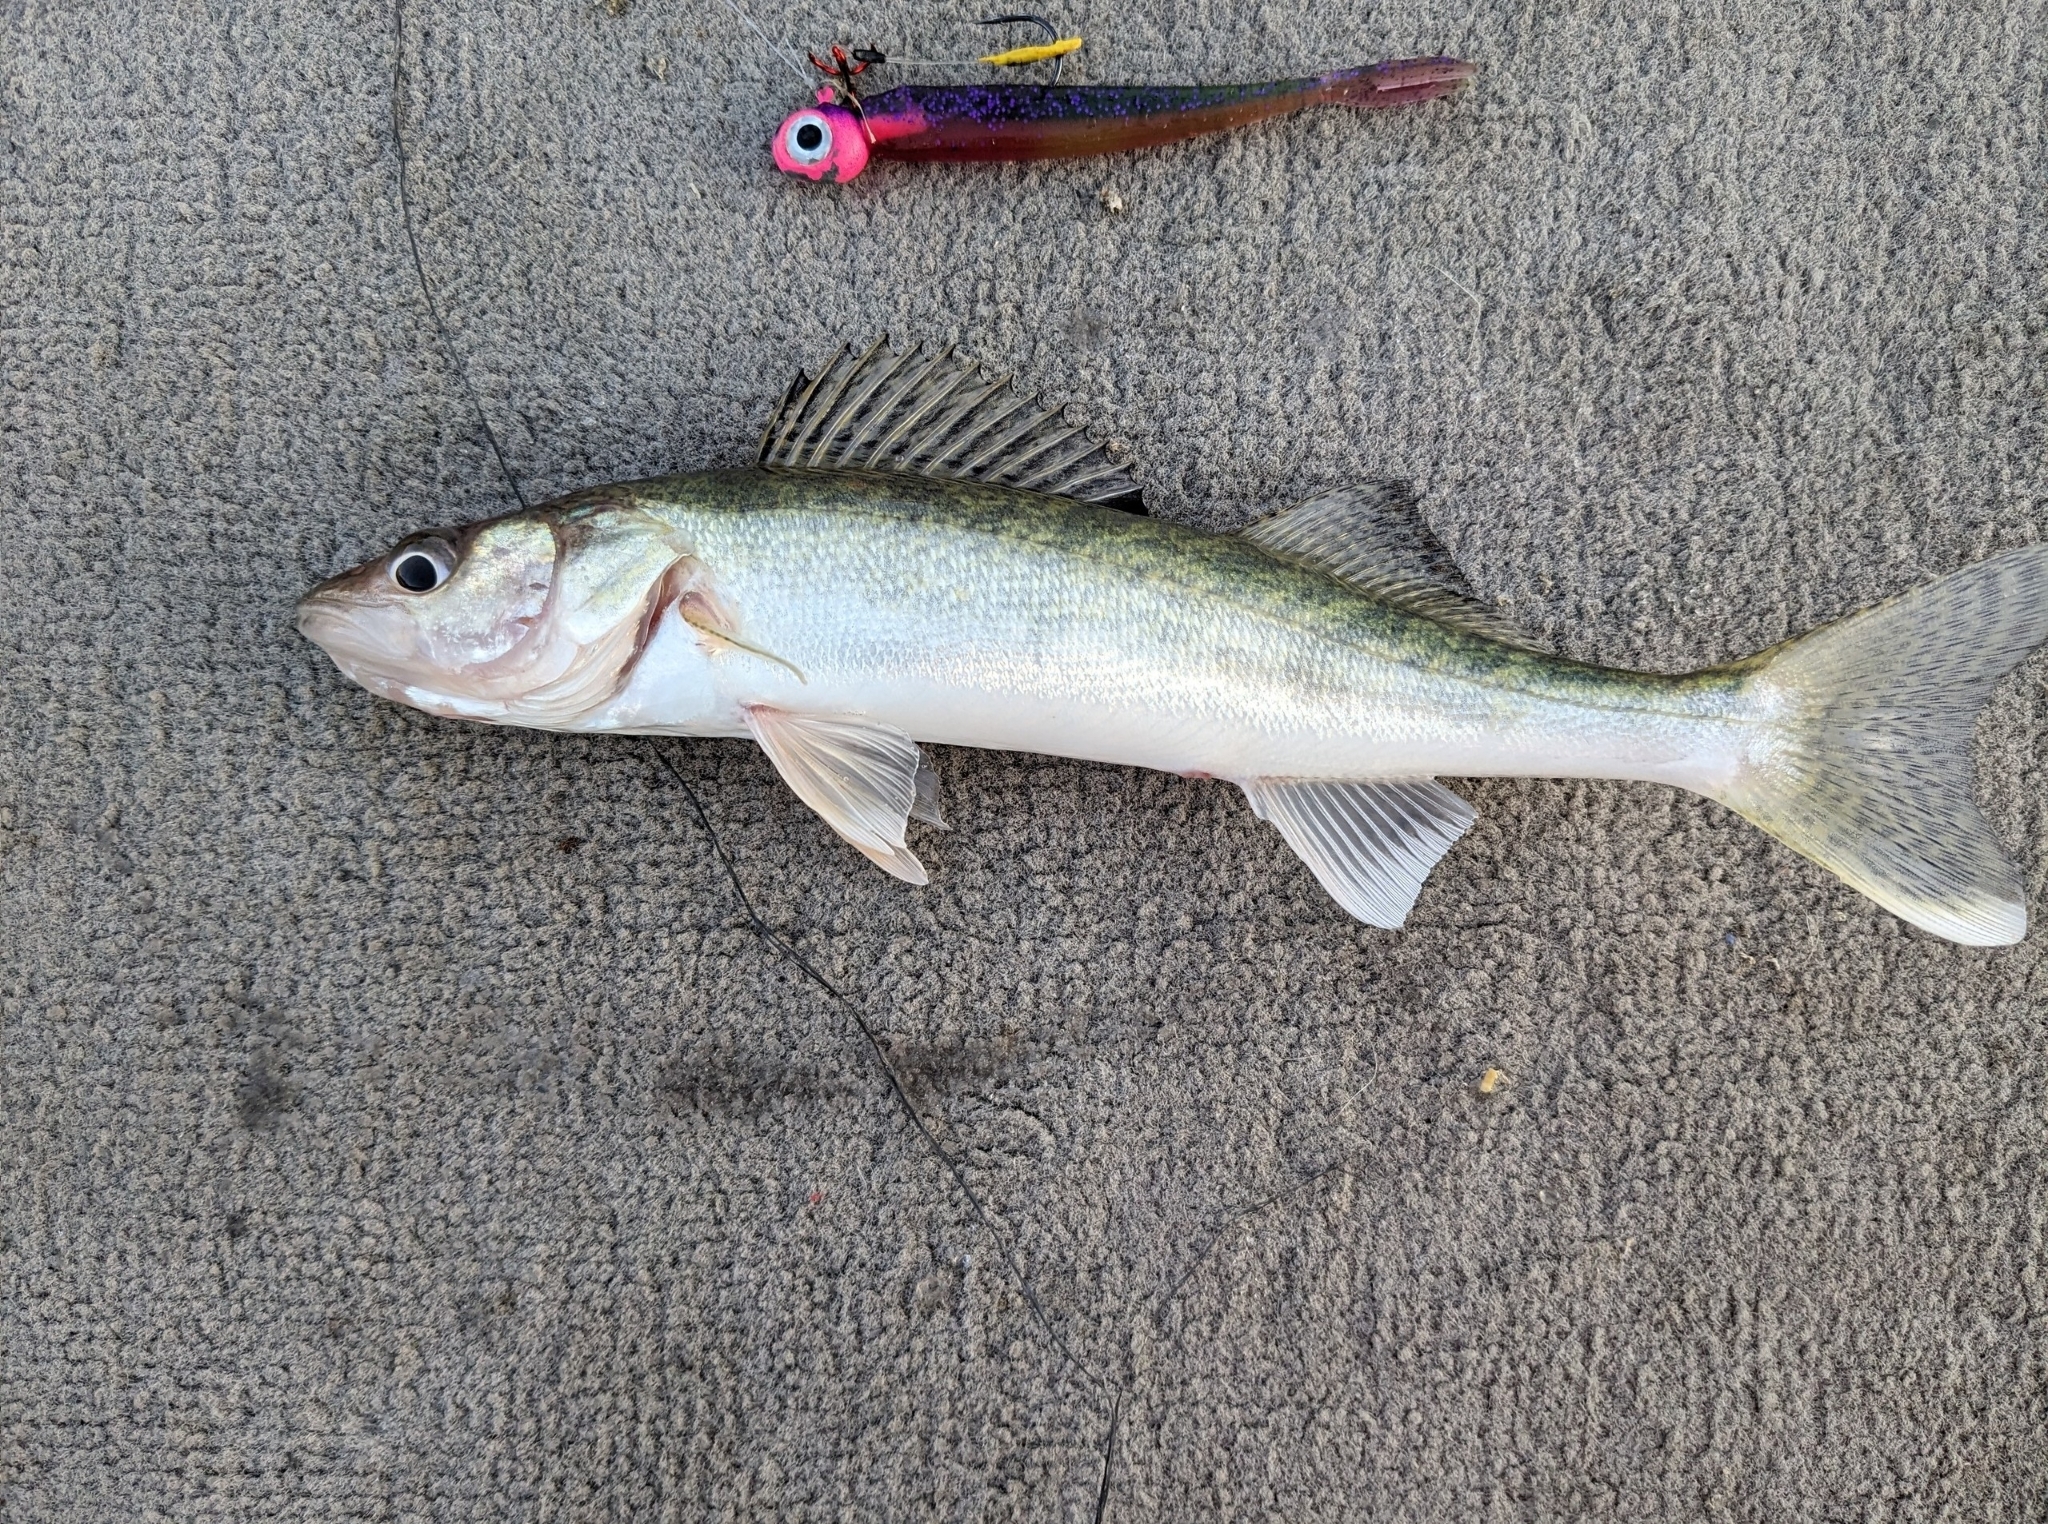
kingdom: Animalia
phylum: Chordata
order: Perciformes
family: Percidae
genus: Sander
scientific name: Sander vitreus
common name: Walleye
